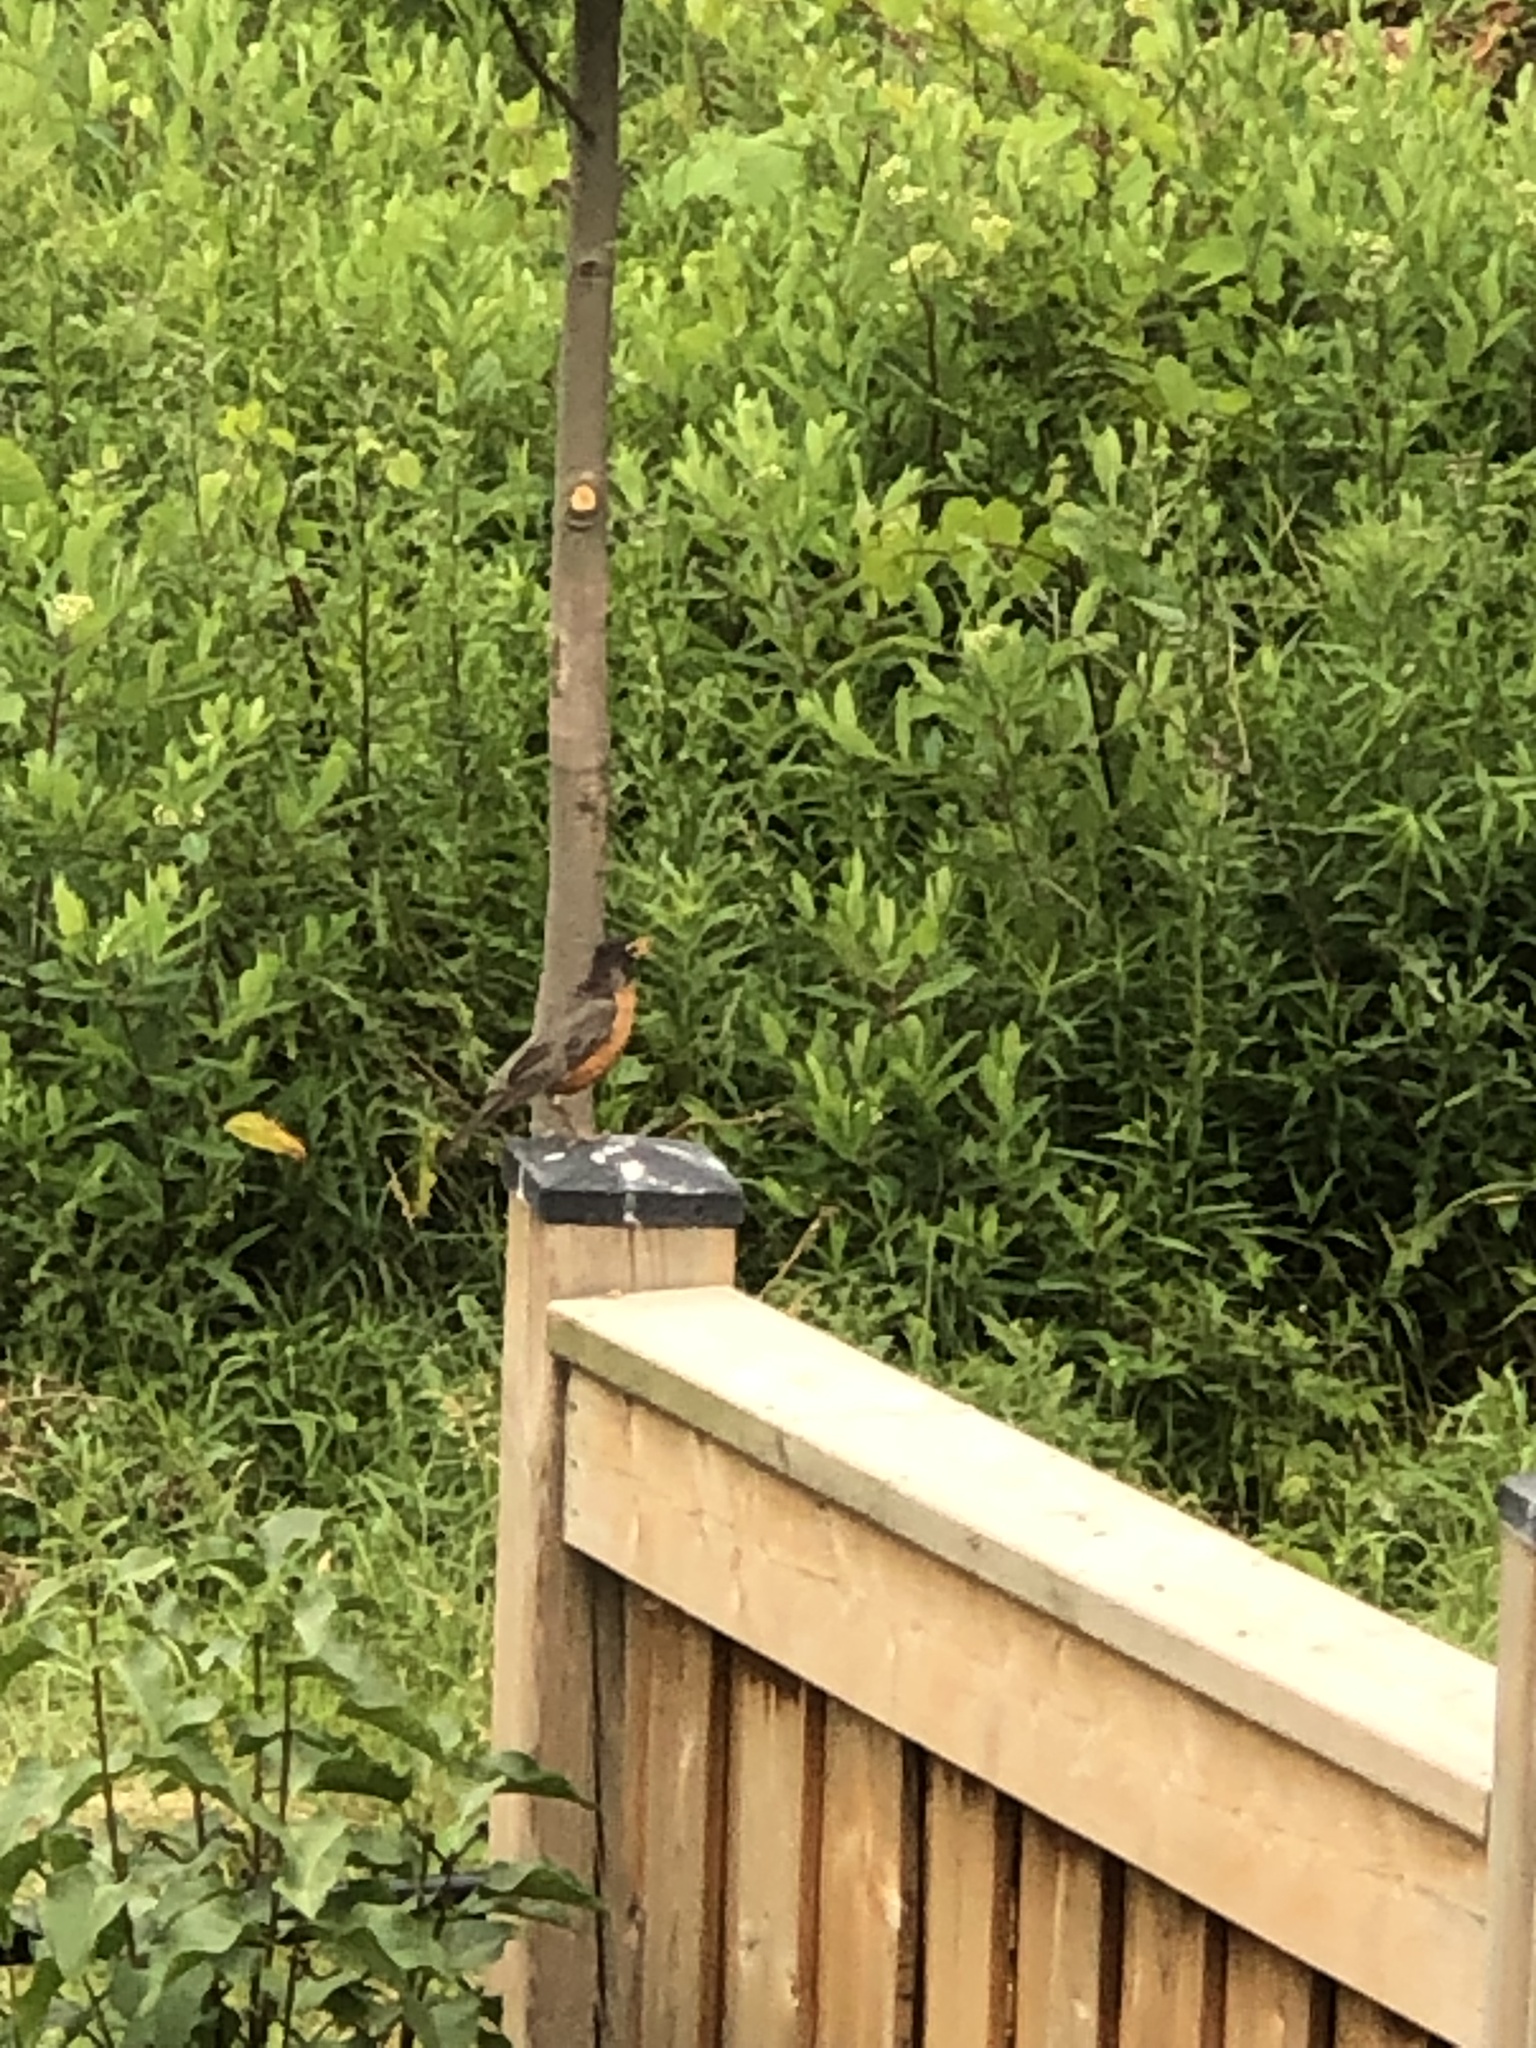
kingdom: Animalia
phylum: Chordata
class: Aves
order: Passeriformes
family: Turdidae
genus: Turdus
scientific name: Turdus migratorius
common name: American robin
